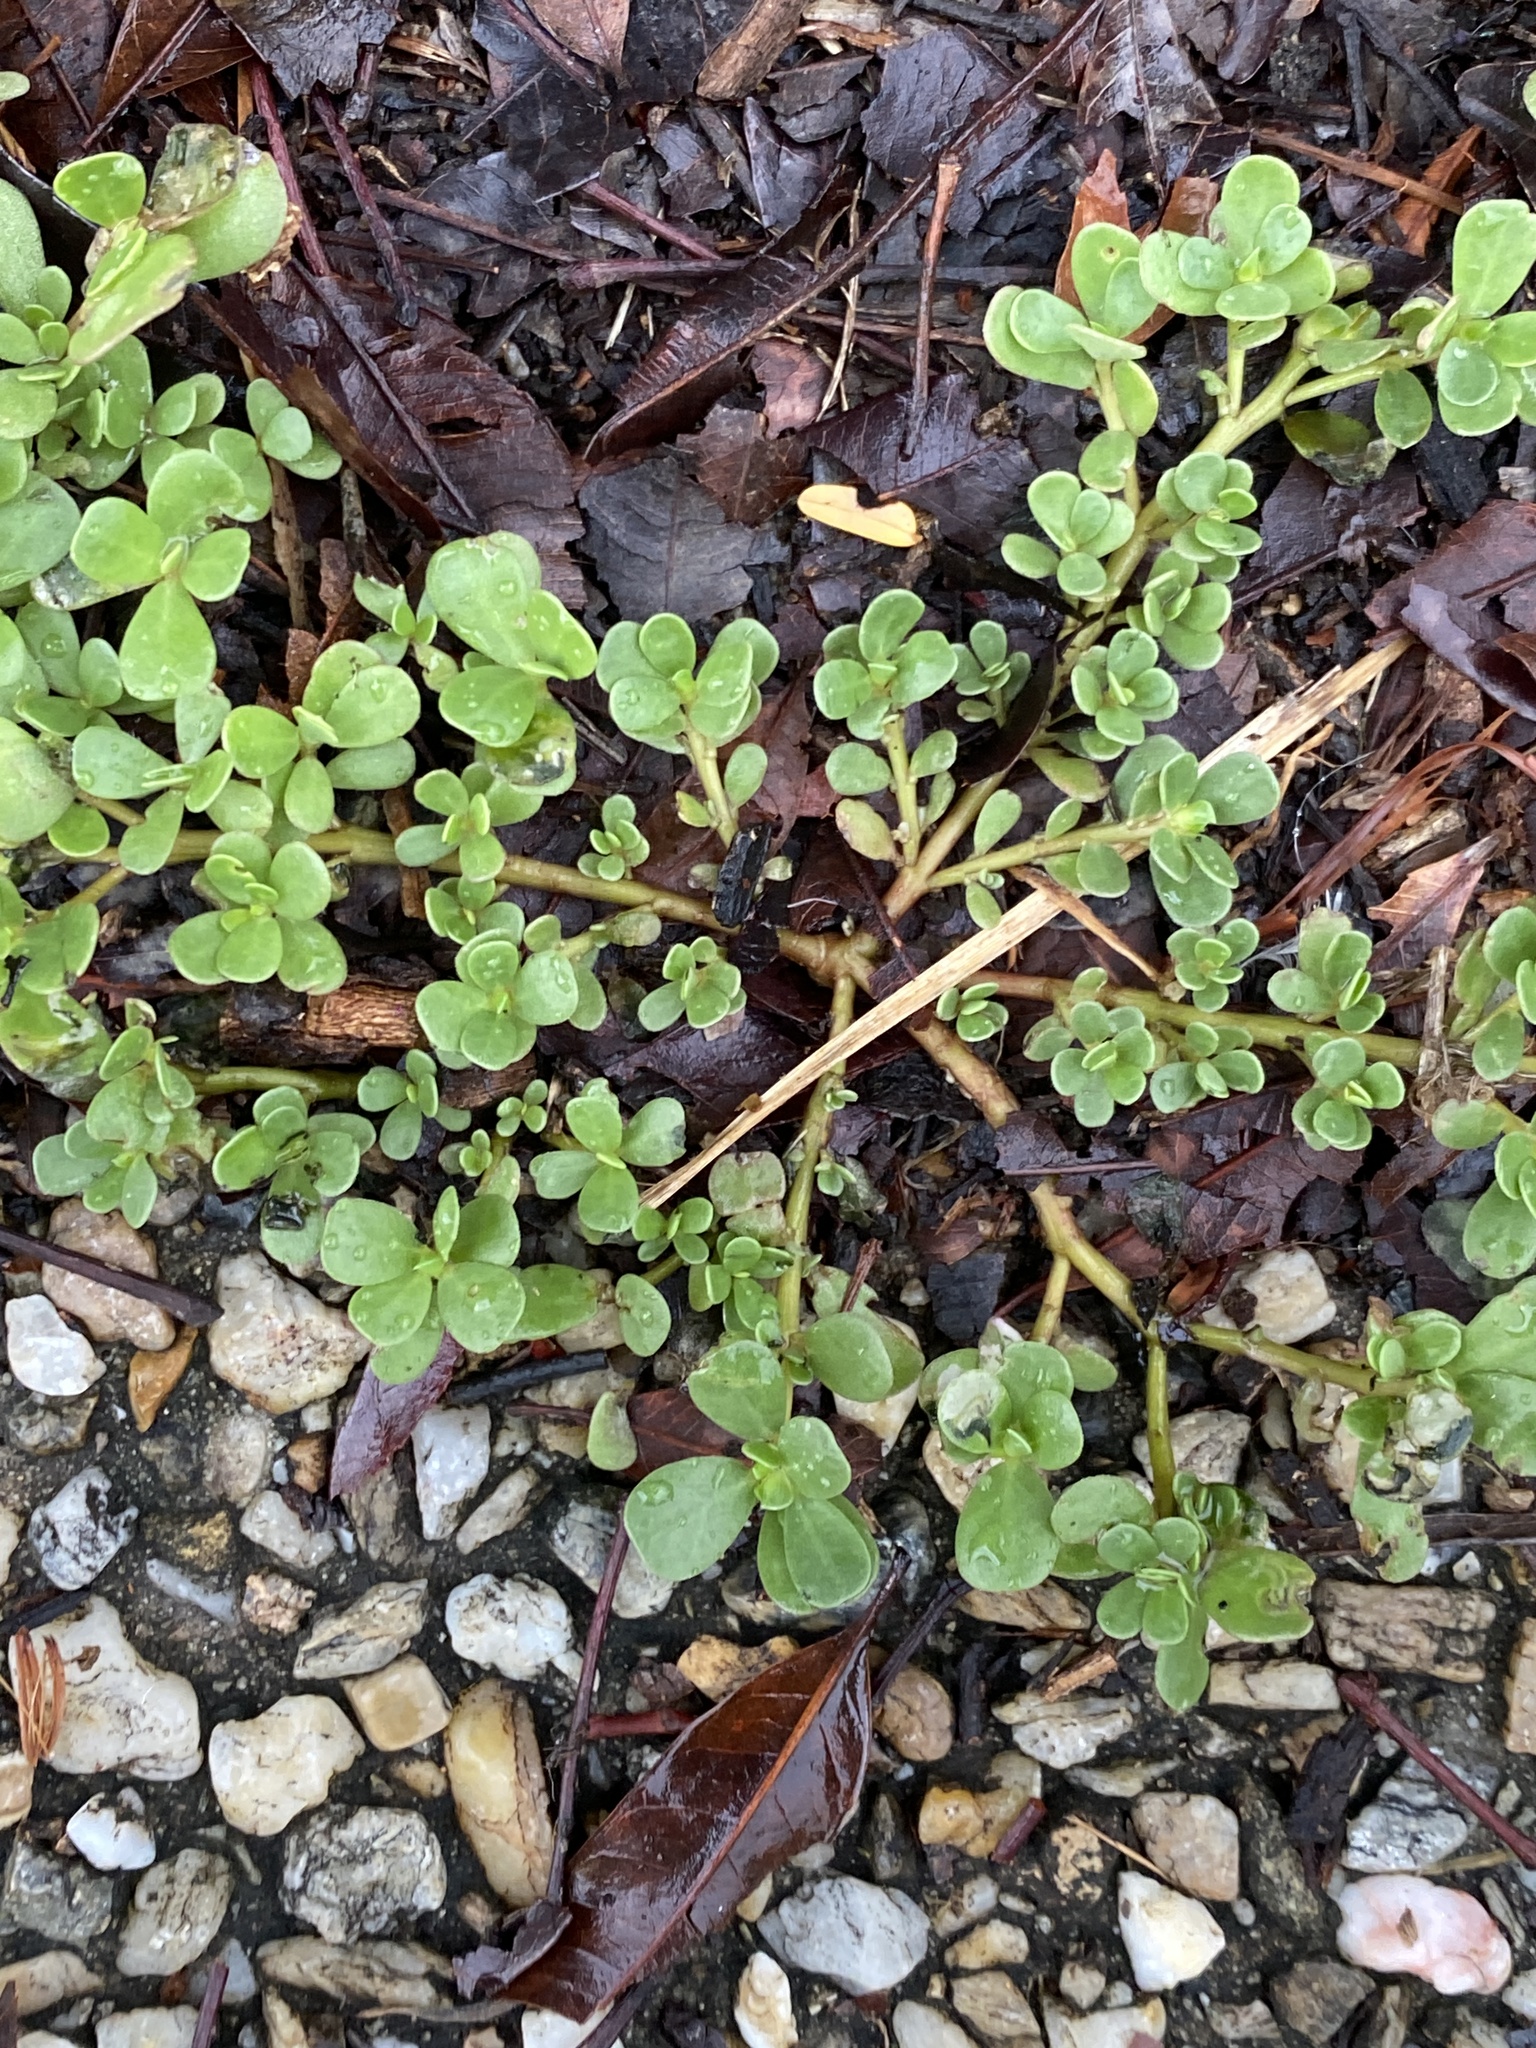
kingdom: Plantae
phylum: Tracheophyta
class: Magnoliopsida
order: Caryophyllales
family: Portulacaceae
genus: Portulaca
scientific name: Portulaca oleracea
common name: Common purslane
